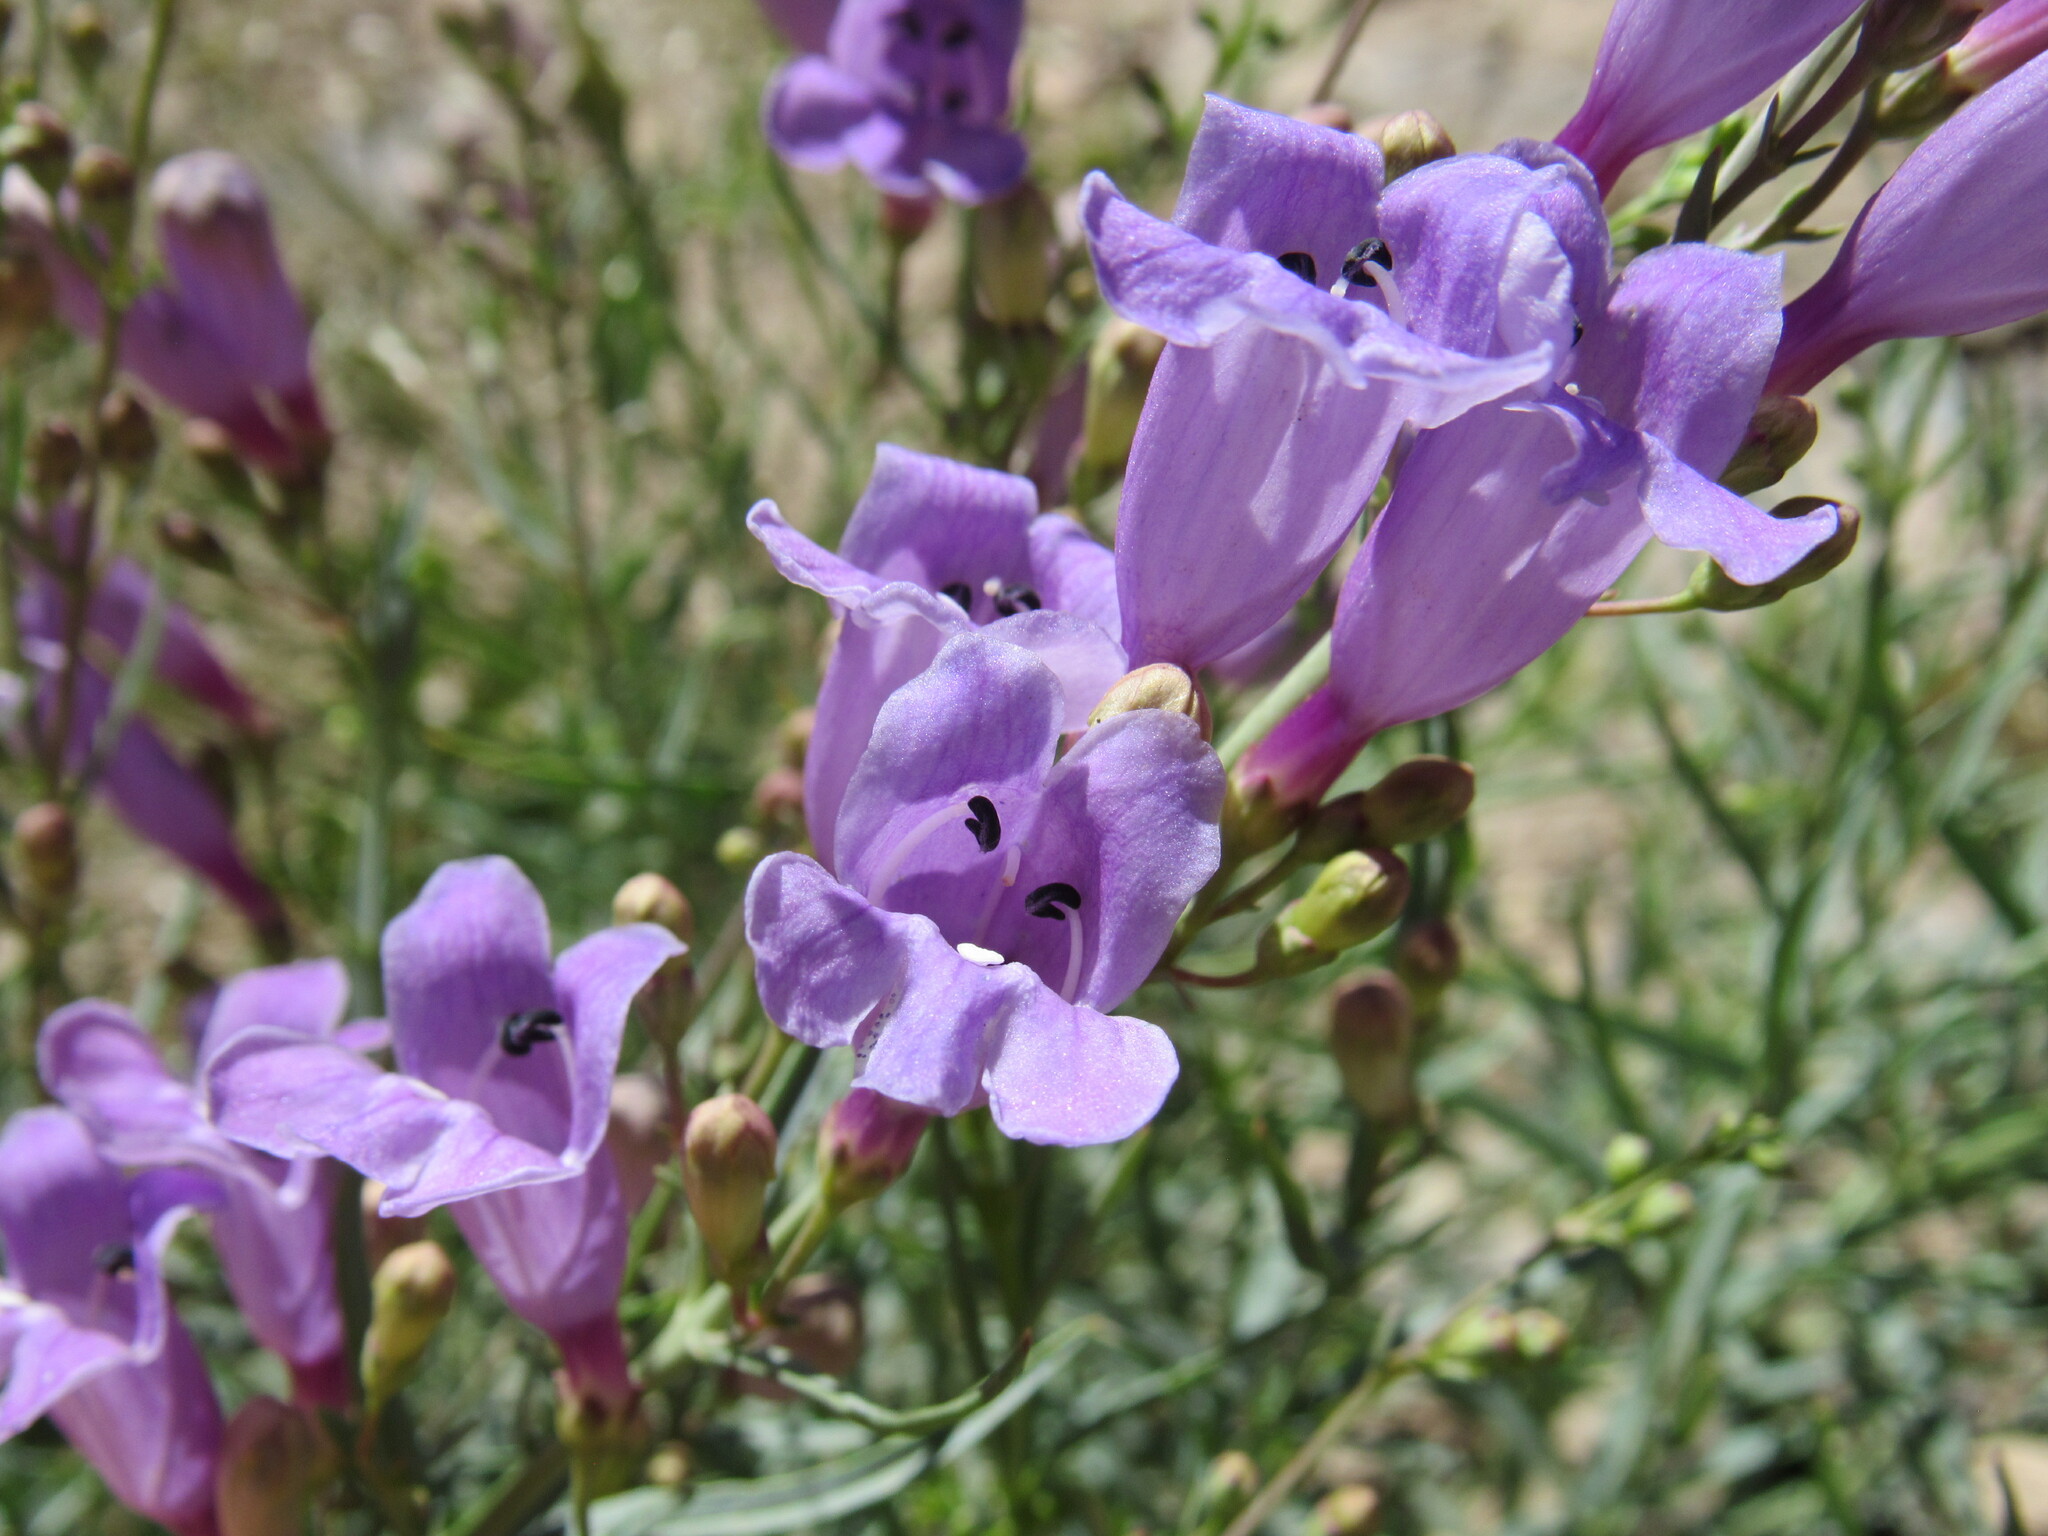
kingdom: Plantae
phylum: Tracheophyta
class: Magnoliopsida
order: Lamiales
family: Plantaginaceae
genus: Penstemon
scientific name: Penstemon sepalulus
